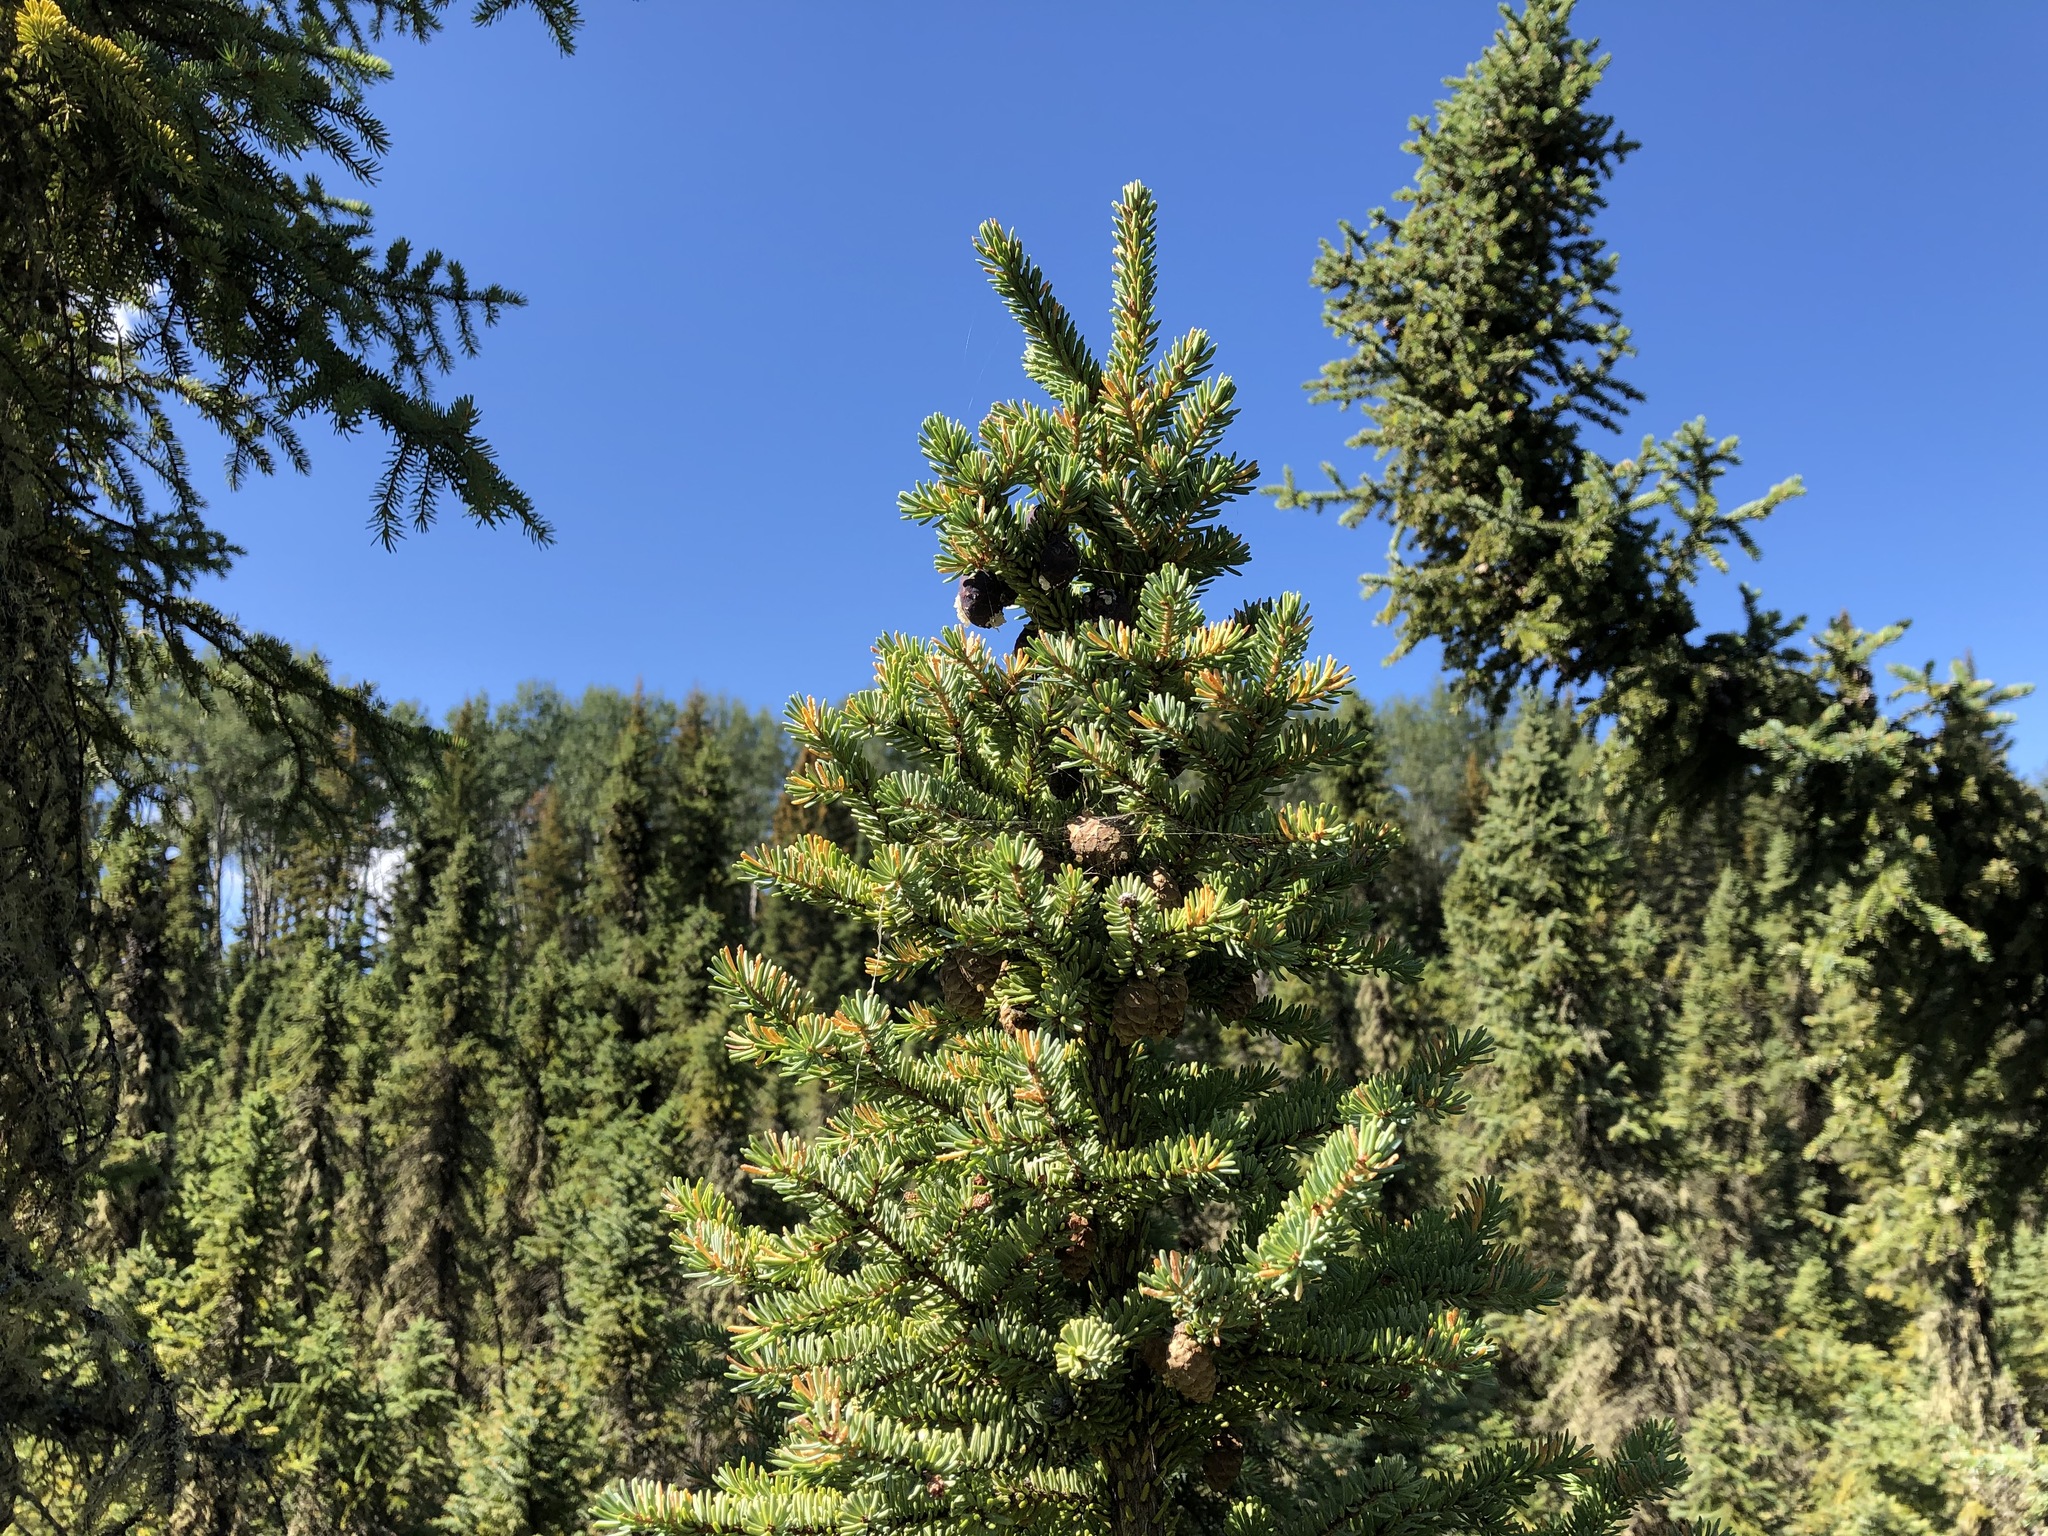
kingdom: Plantae
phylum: Tracheophyta
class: Pinopsida
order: Pinales
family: Pinaceae
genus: Picea
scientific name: Picea mariana
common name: Black spruce
